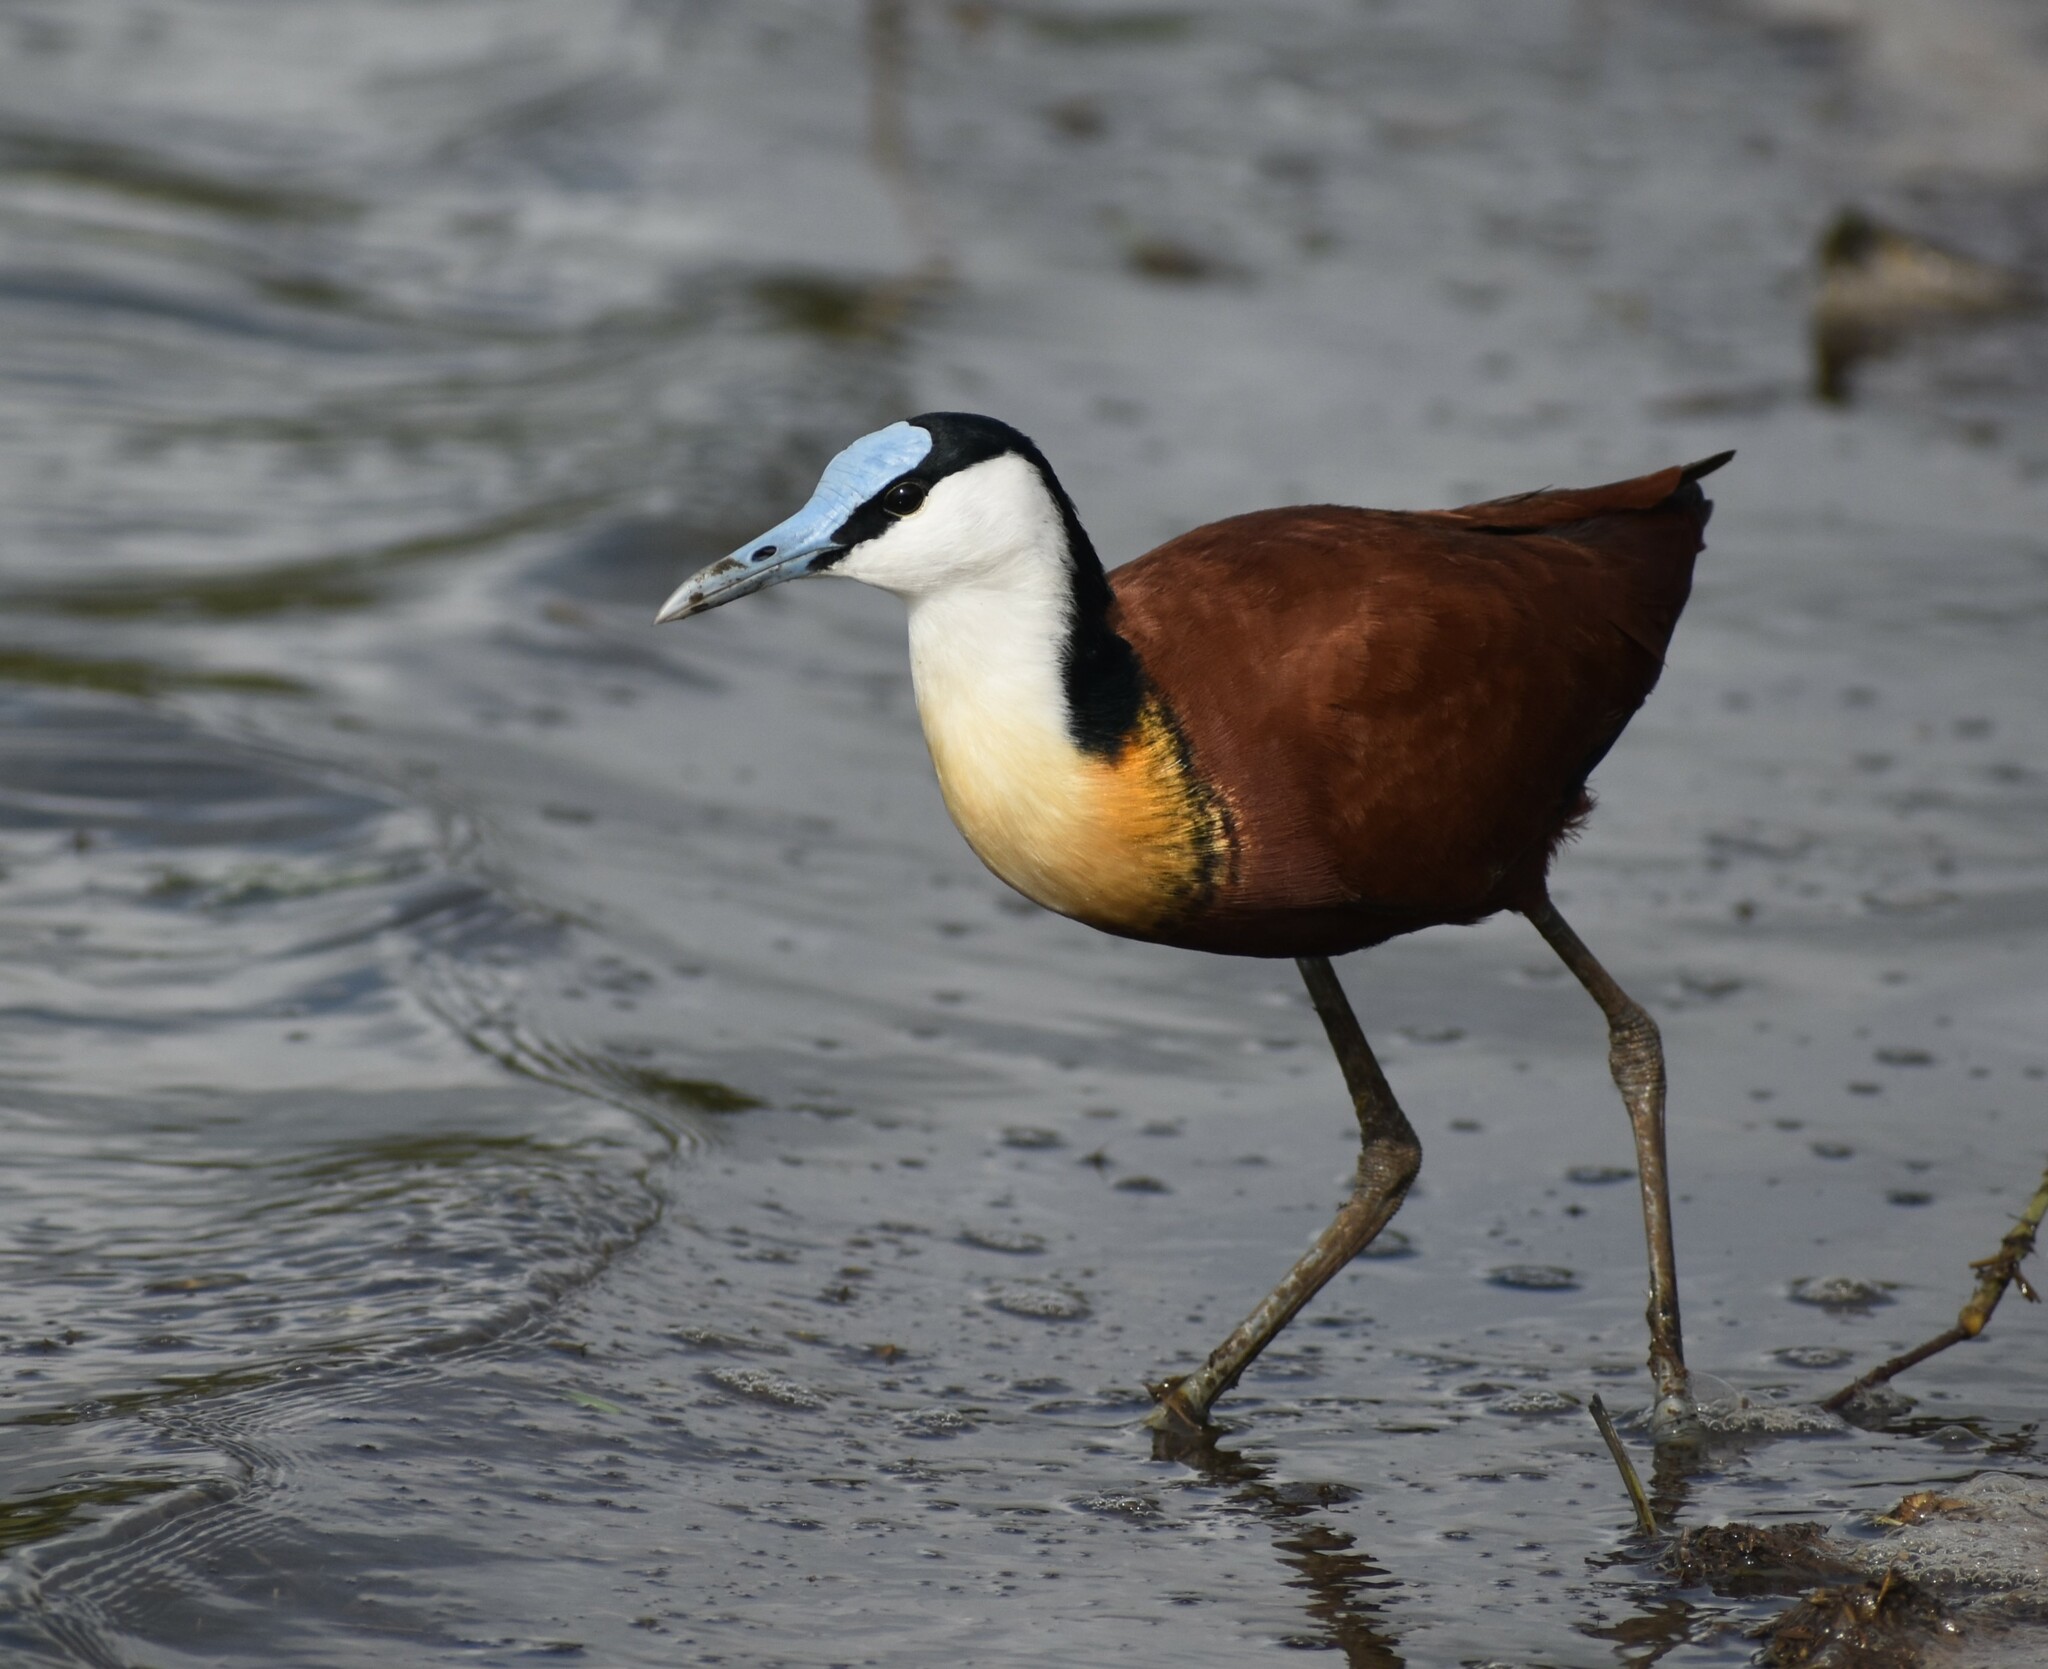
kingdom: Animalia
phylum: Chordata
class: Aves
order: Charadriiformes
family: Jacanidae
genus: Actophilornis
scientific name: Actophilornis africanus
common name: African jacana
